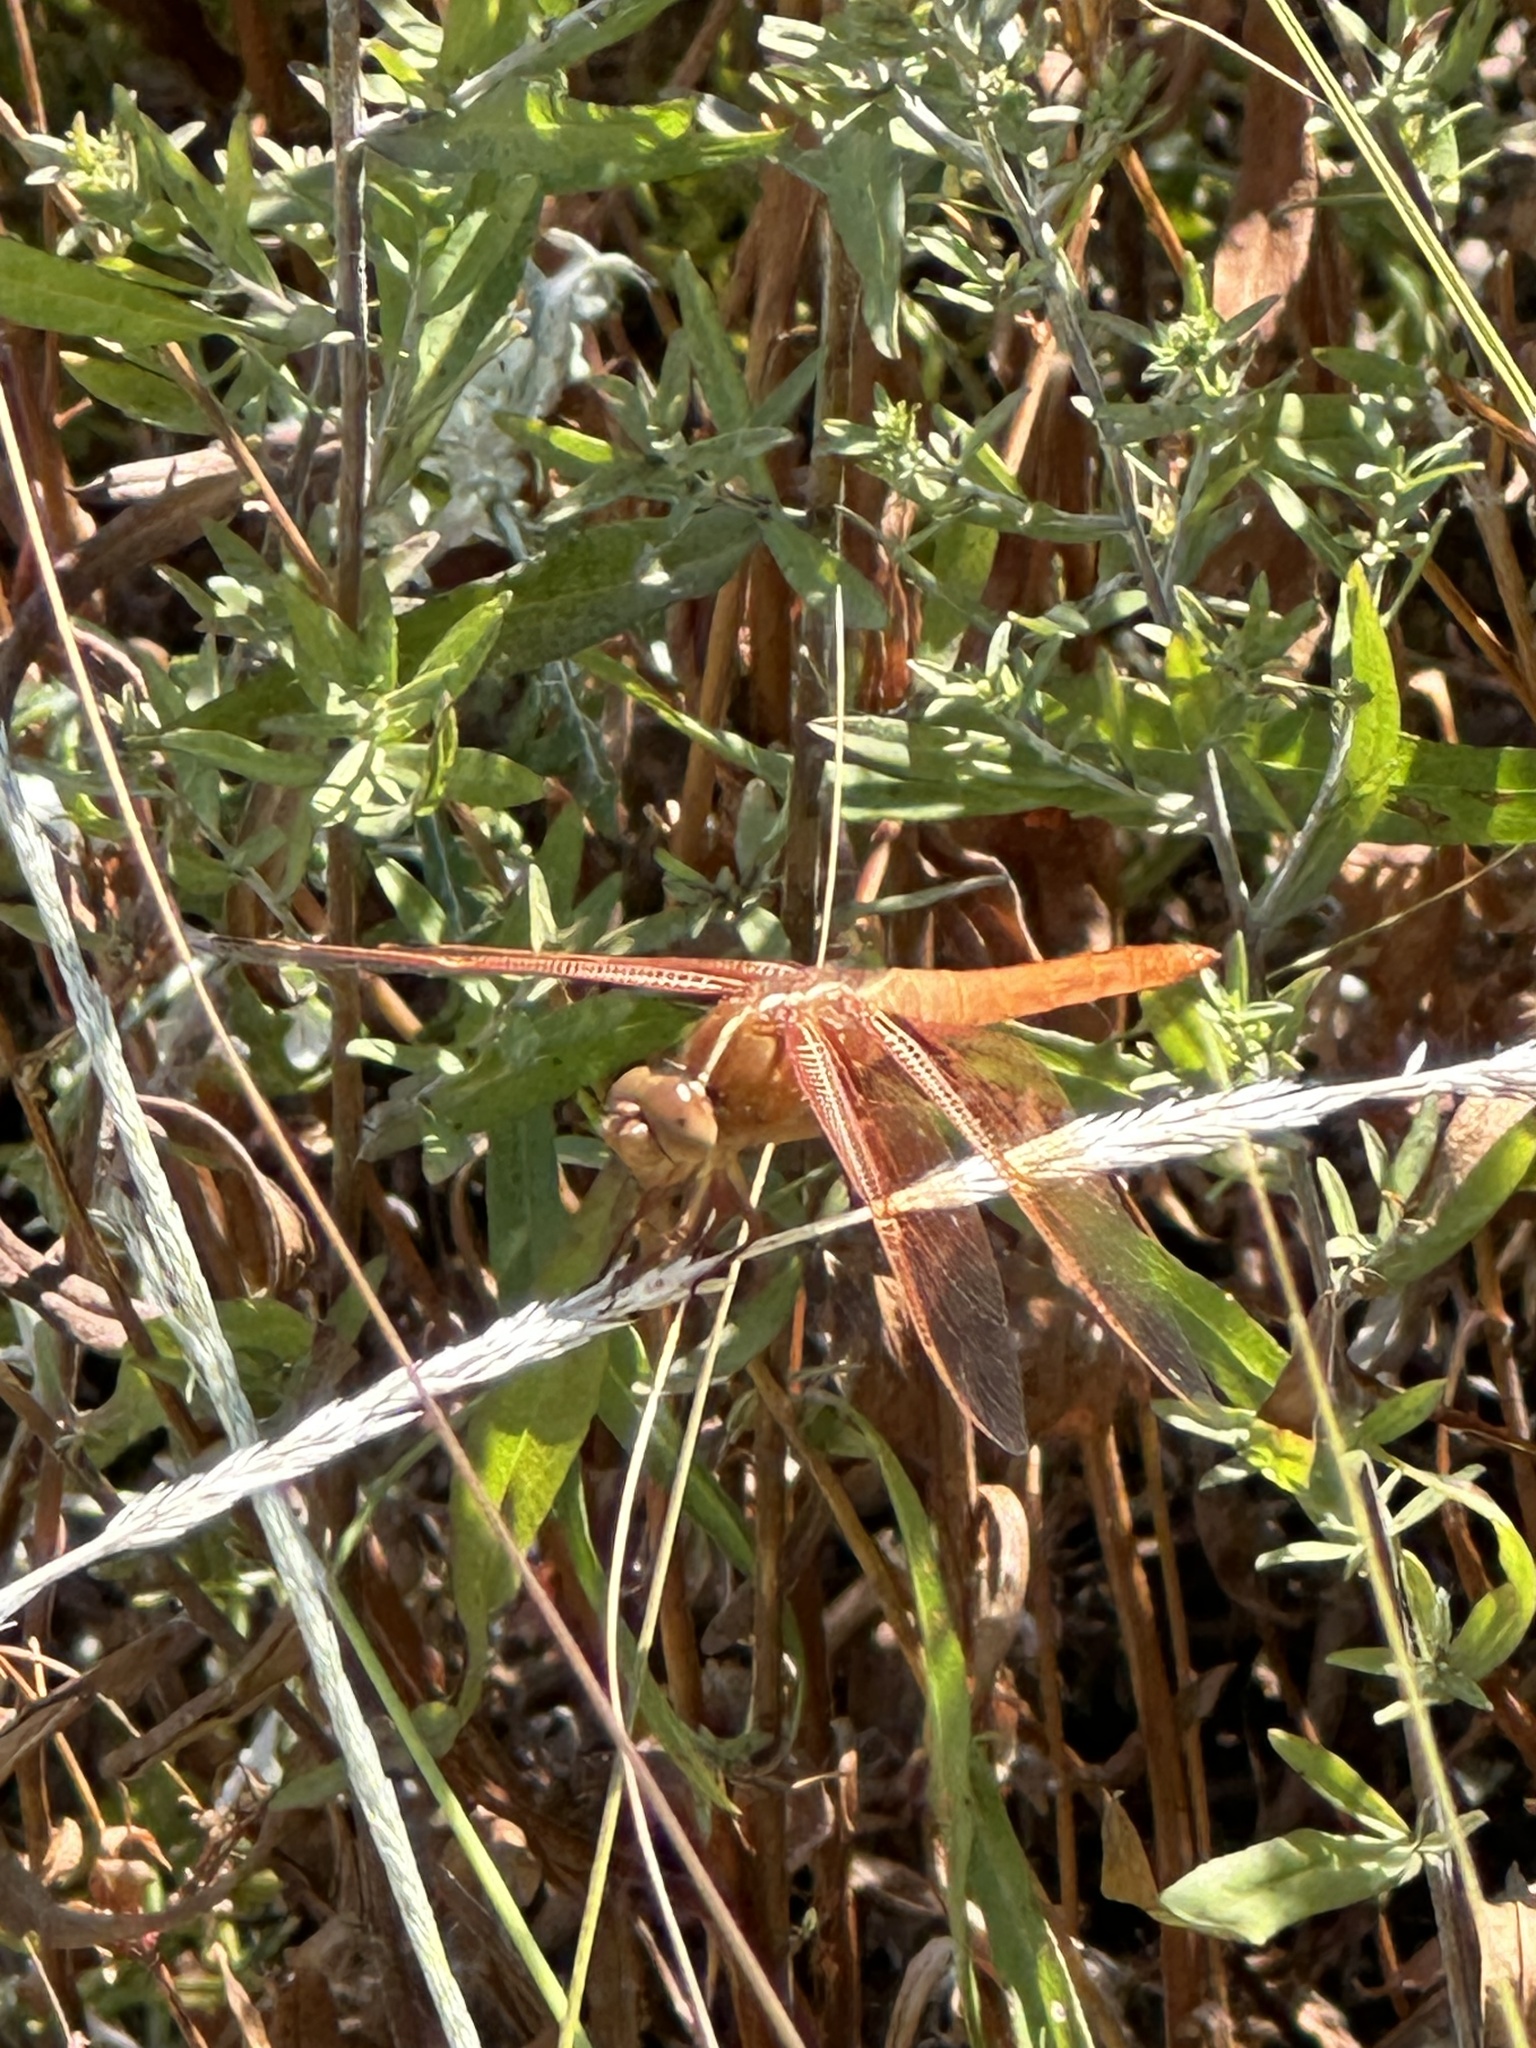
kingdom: Animalia
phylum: Arthropoda
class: Insecta
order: Odonata
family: Libellulidae
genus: Libellula
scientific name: Libellula saturata
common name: Flame skimmer
